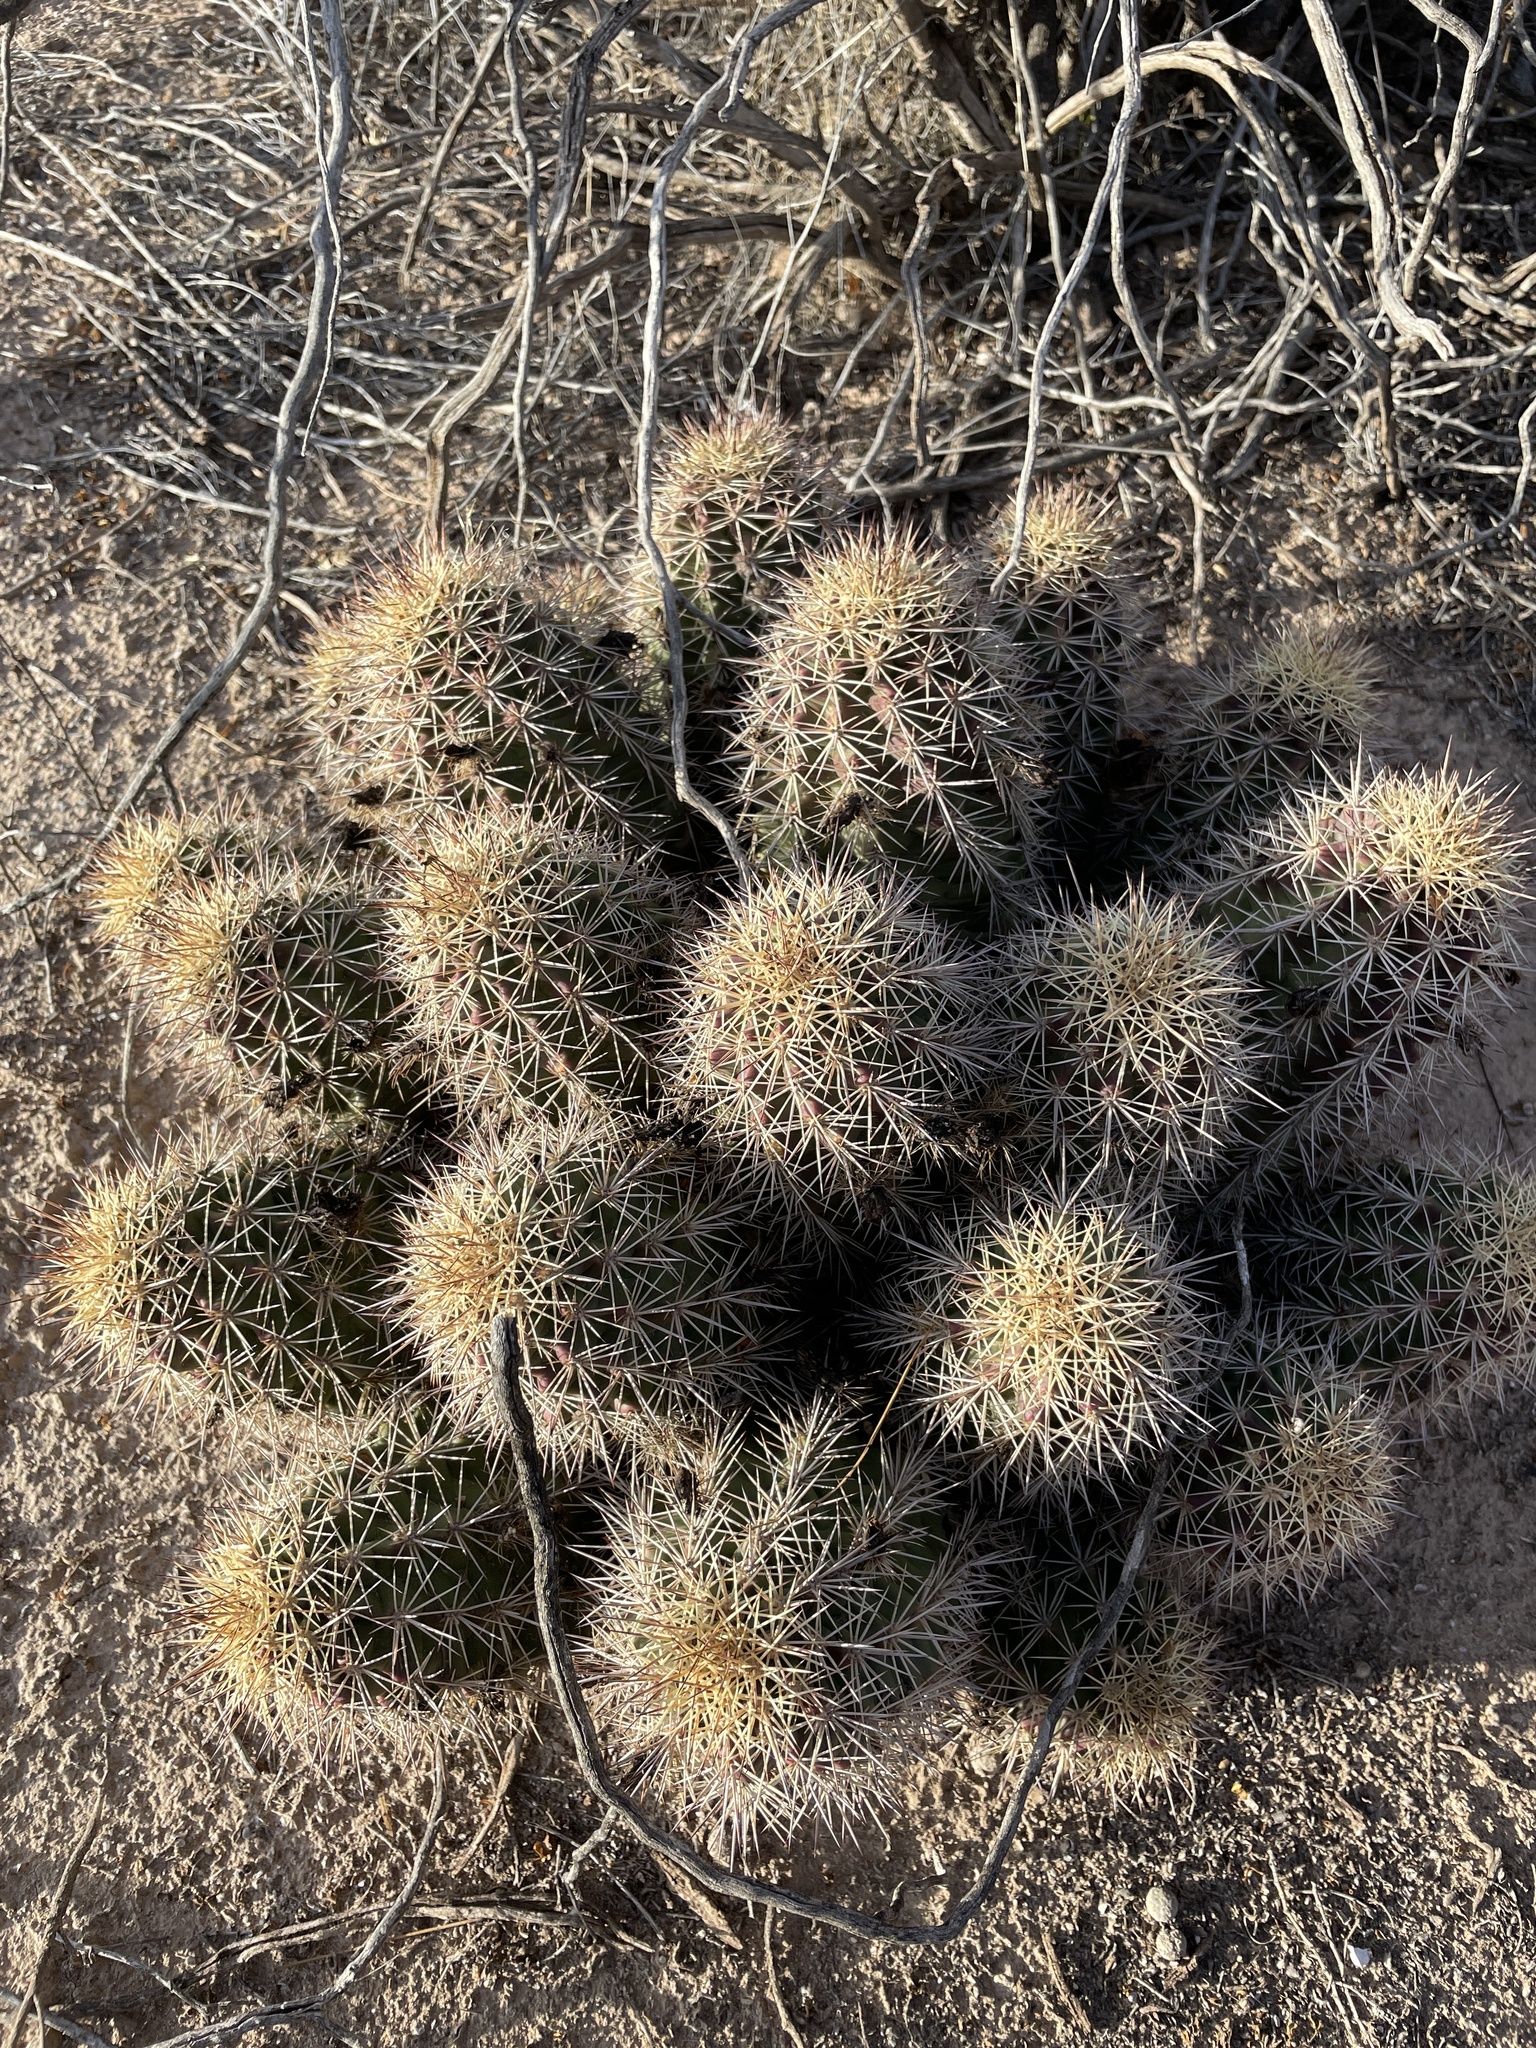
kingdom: Plantae
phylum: Tracheophyta
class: Magnoliopsida
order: Caryophyllales
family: Cactaceae
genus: Echinocereus
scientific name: Echinocereus coccineus
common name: Scarlet hedgehog cactus
